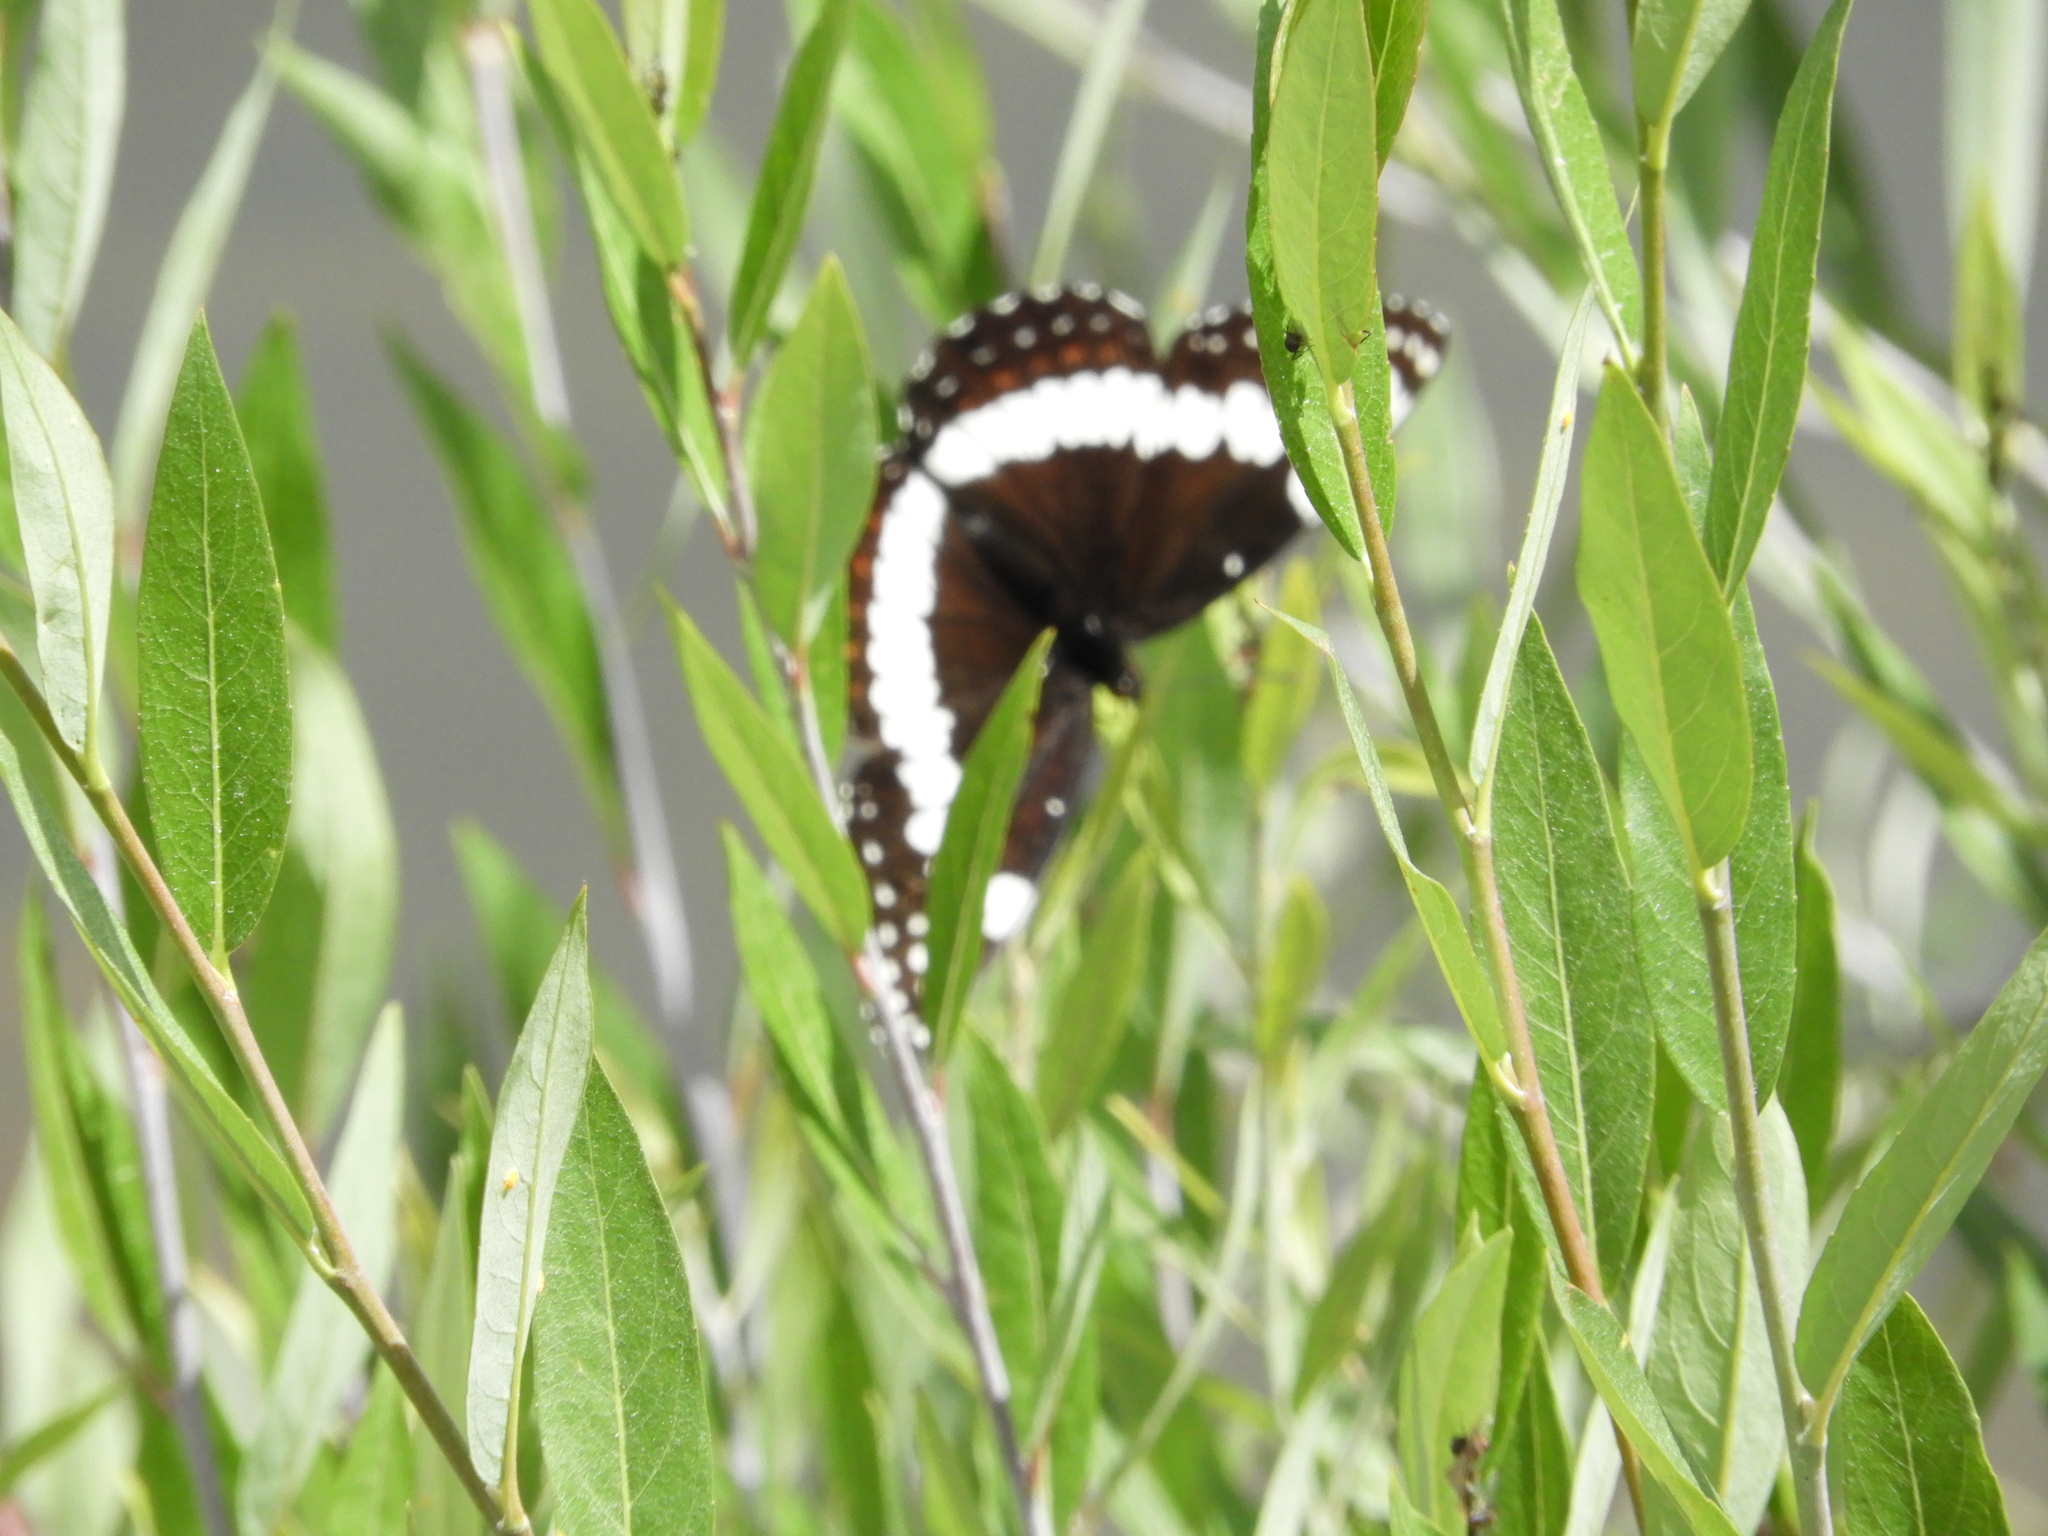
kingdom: Animalia
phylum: Arthropoda
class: Insecta
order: Lepidoptera
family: Nymphalidae
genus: Limenitis
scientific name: Limenitis weidemeyerii
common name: Weidemeyer's admiral
